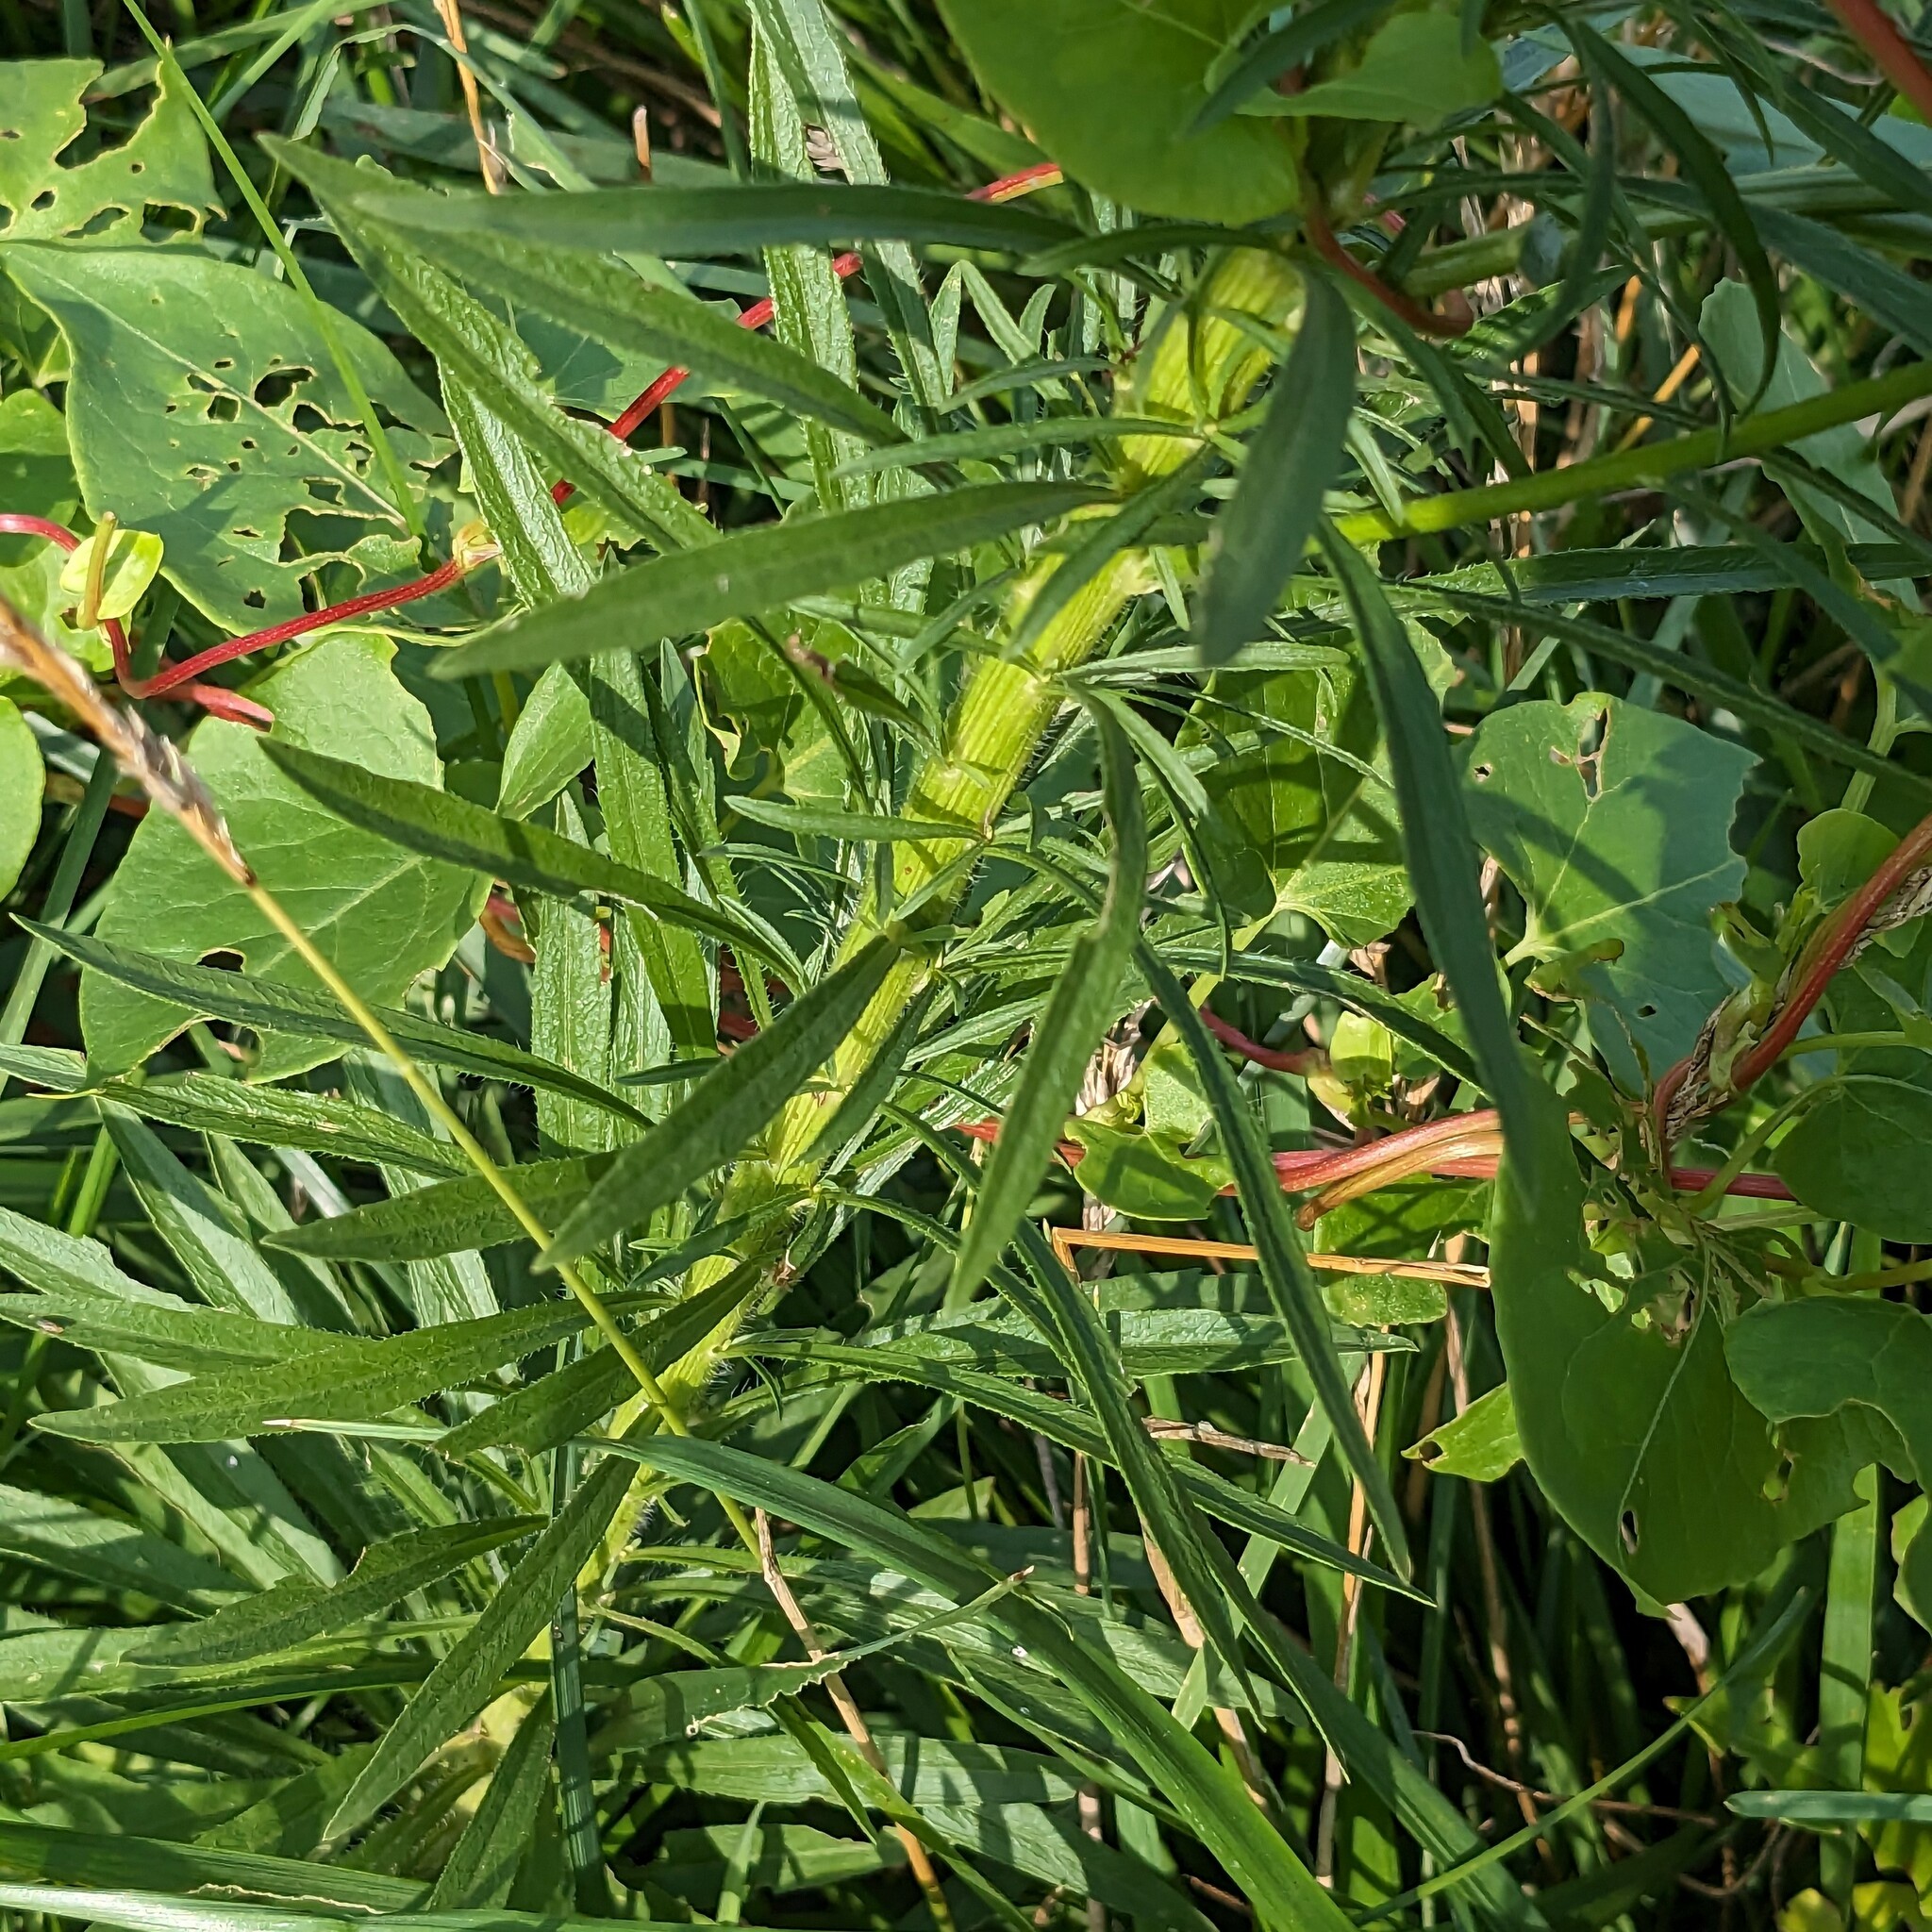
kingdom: Plantae
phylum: Tracheophyta
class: Magnoliopsida
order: Asterales
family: Asteraceae
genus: Erigeron
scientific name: Erigeron canadensis
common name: Canadian fleabane
